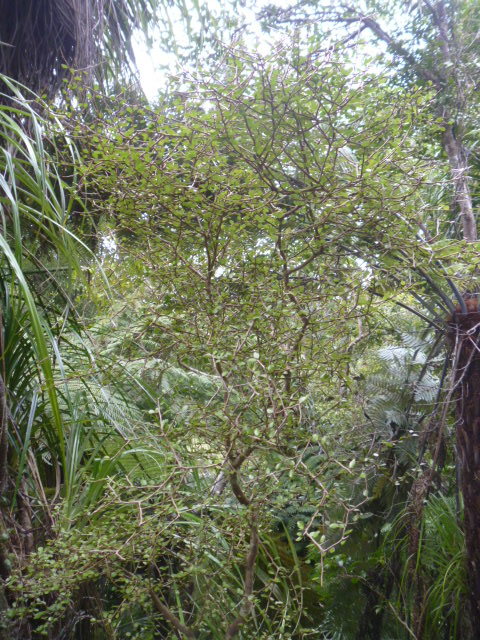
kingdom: Plantae
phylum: Tracheophyta
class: Magnoliopsida
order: Apiales
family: Araliaceae
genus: Raukaua
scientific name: Raukaua anomalus
